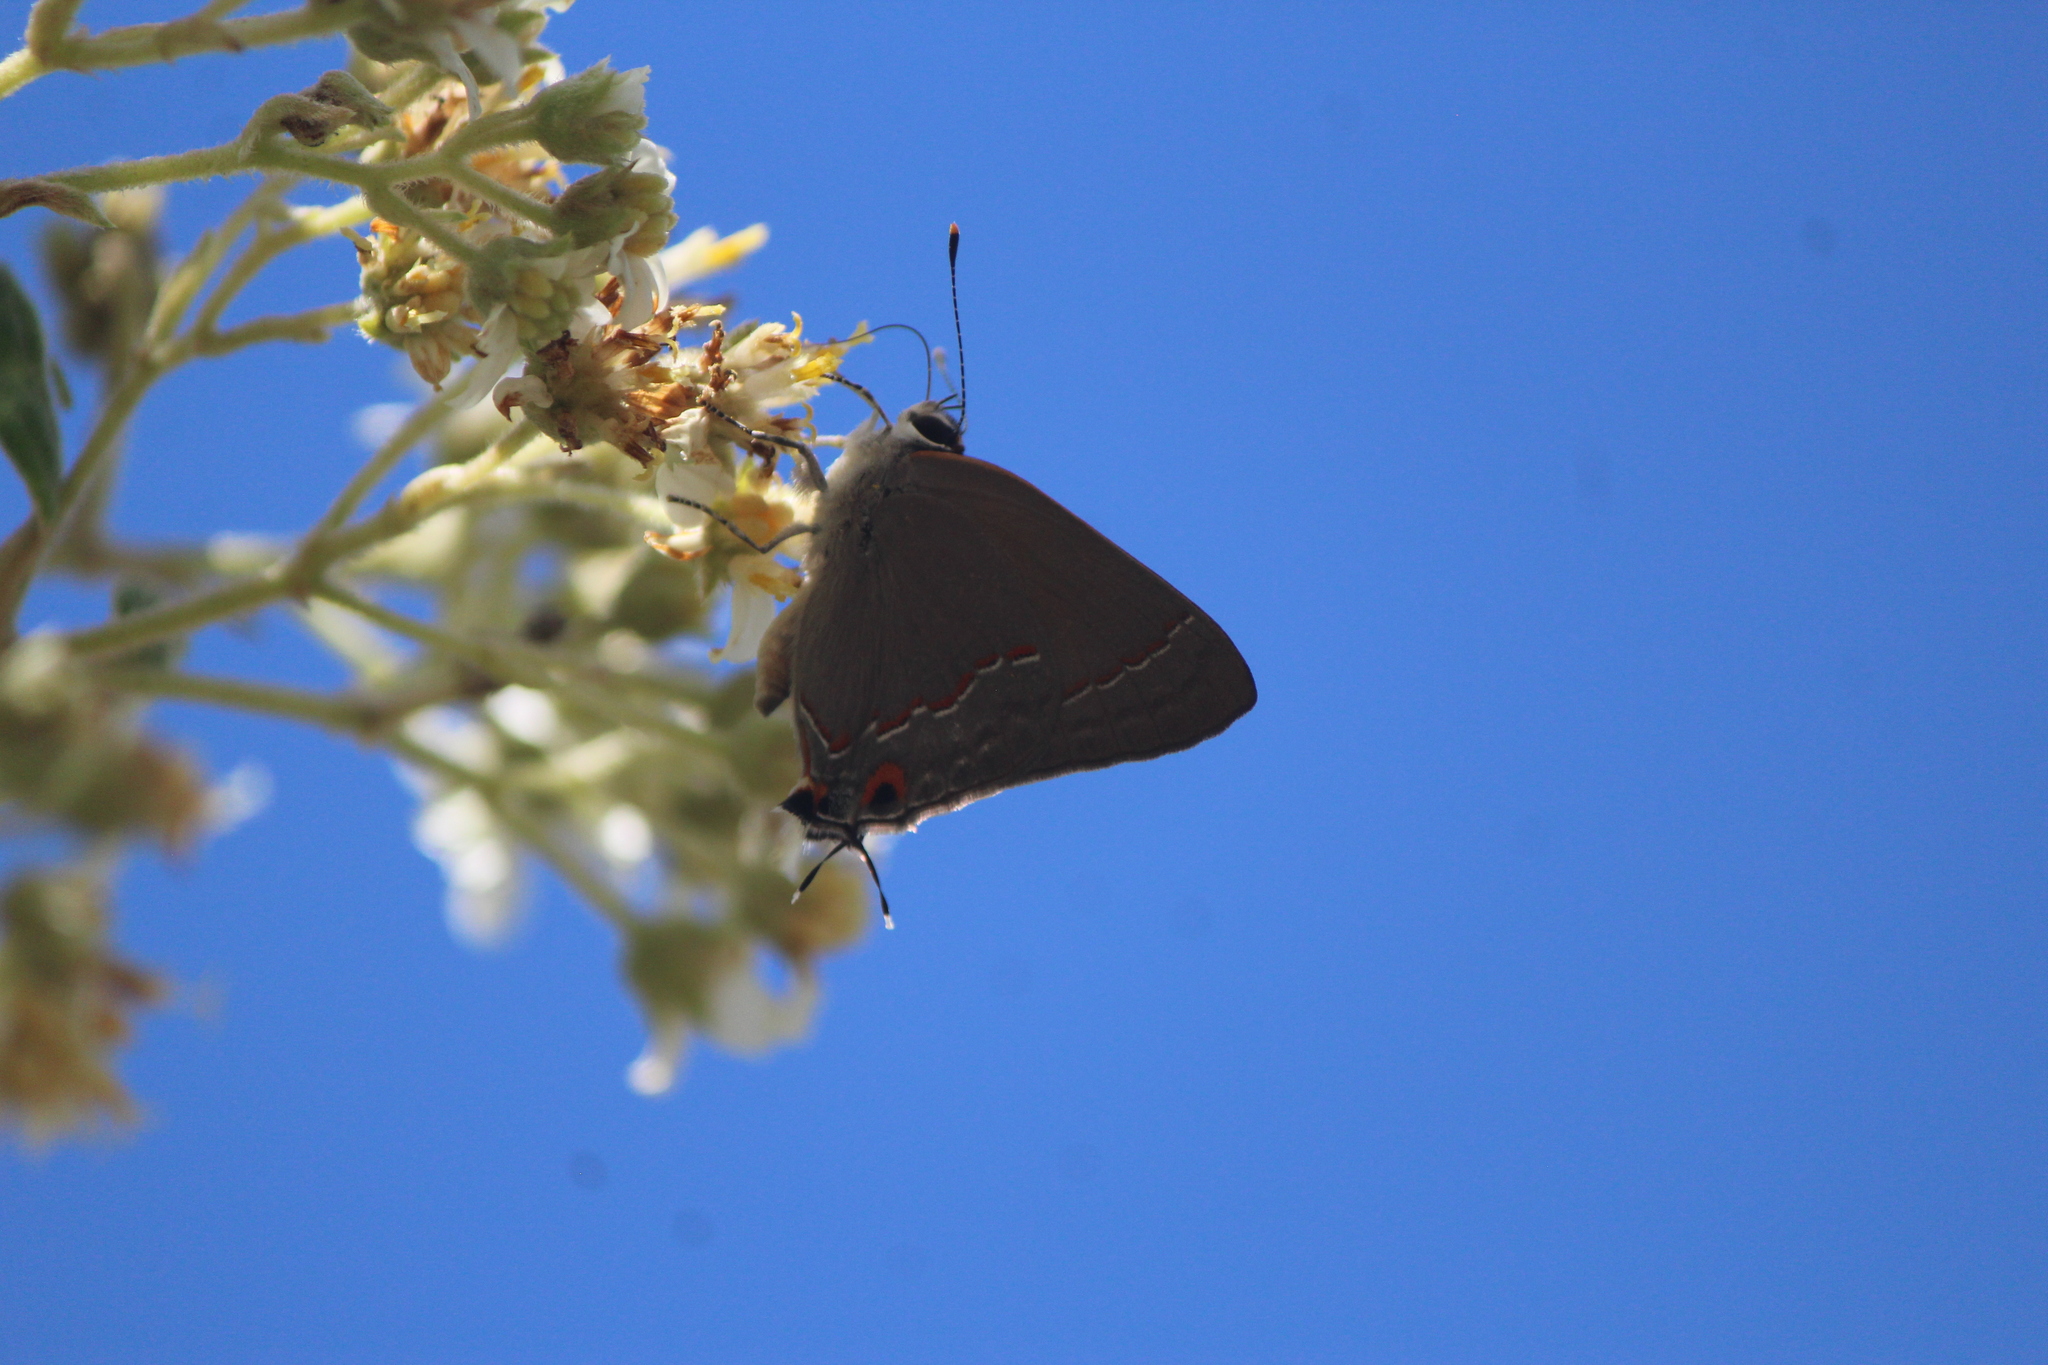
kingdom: Animalia
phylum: Arthropoda
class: Insecta
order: Lepidoptera
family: Lycaenidae
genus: Strymon
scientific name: Strymon melinus
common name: Gray hairstreak
